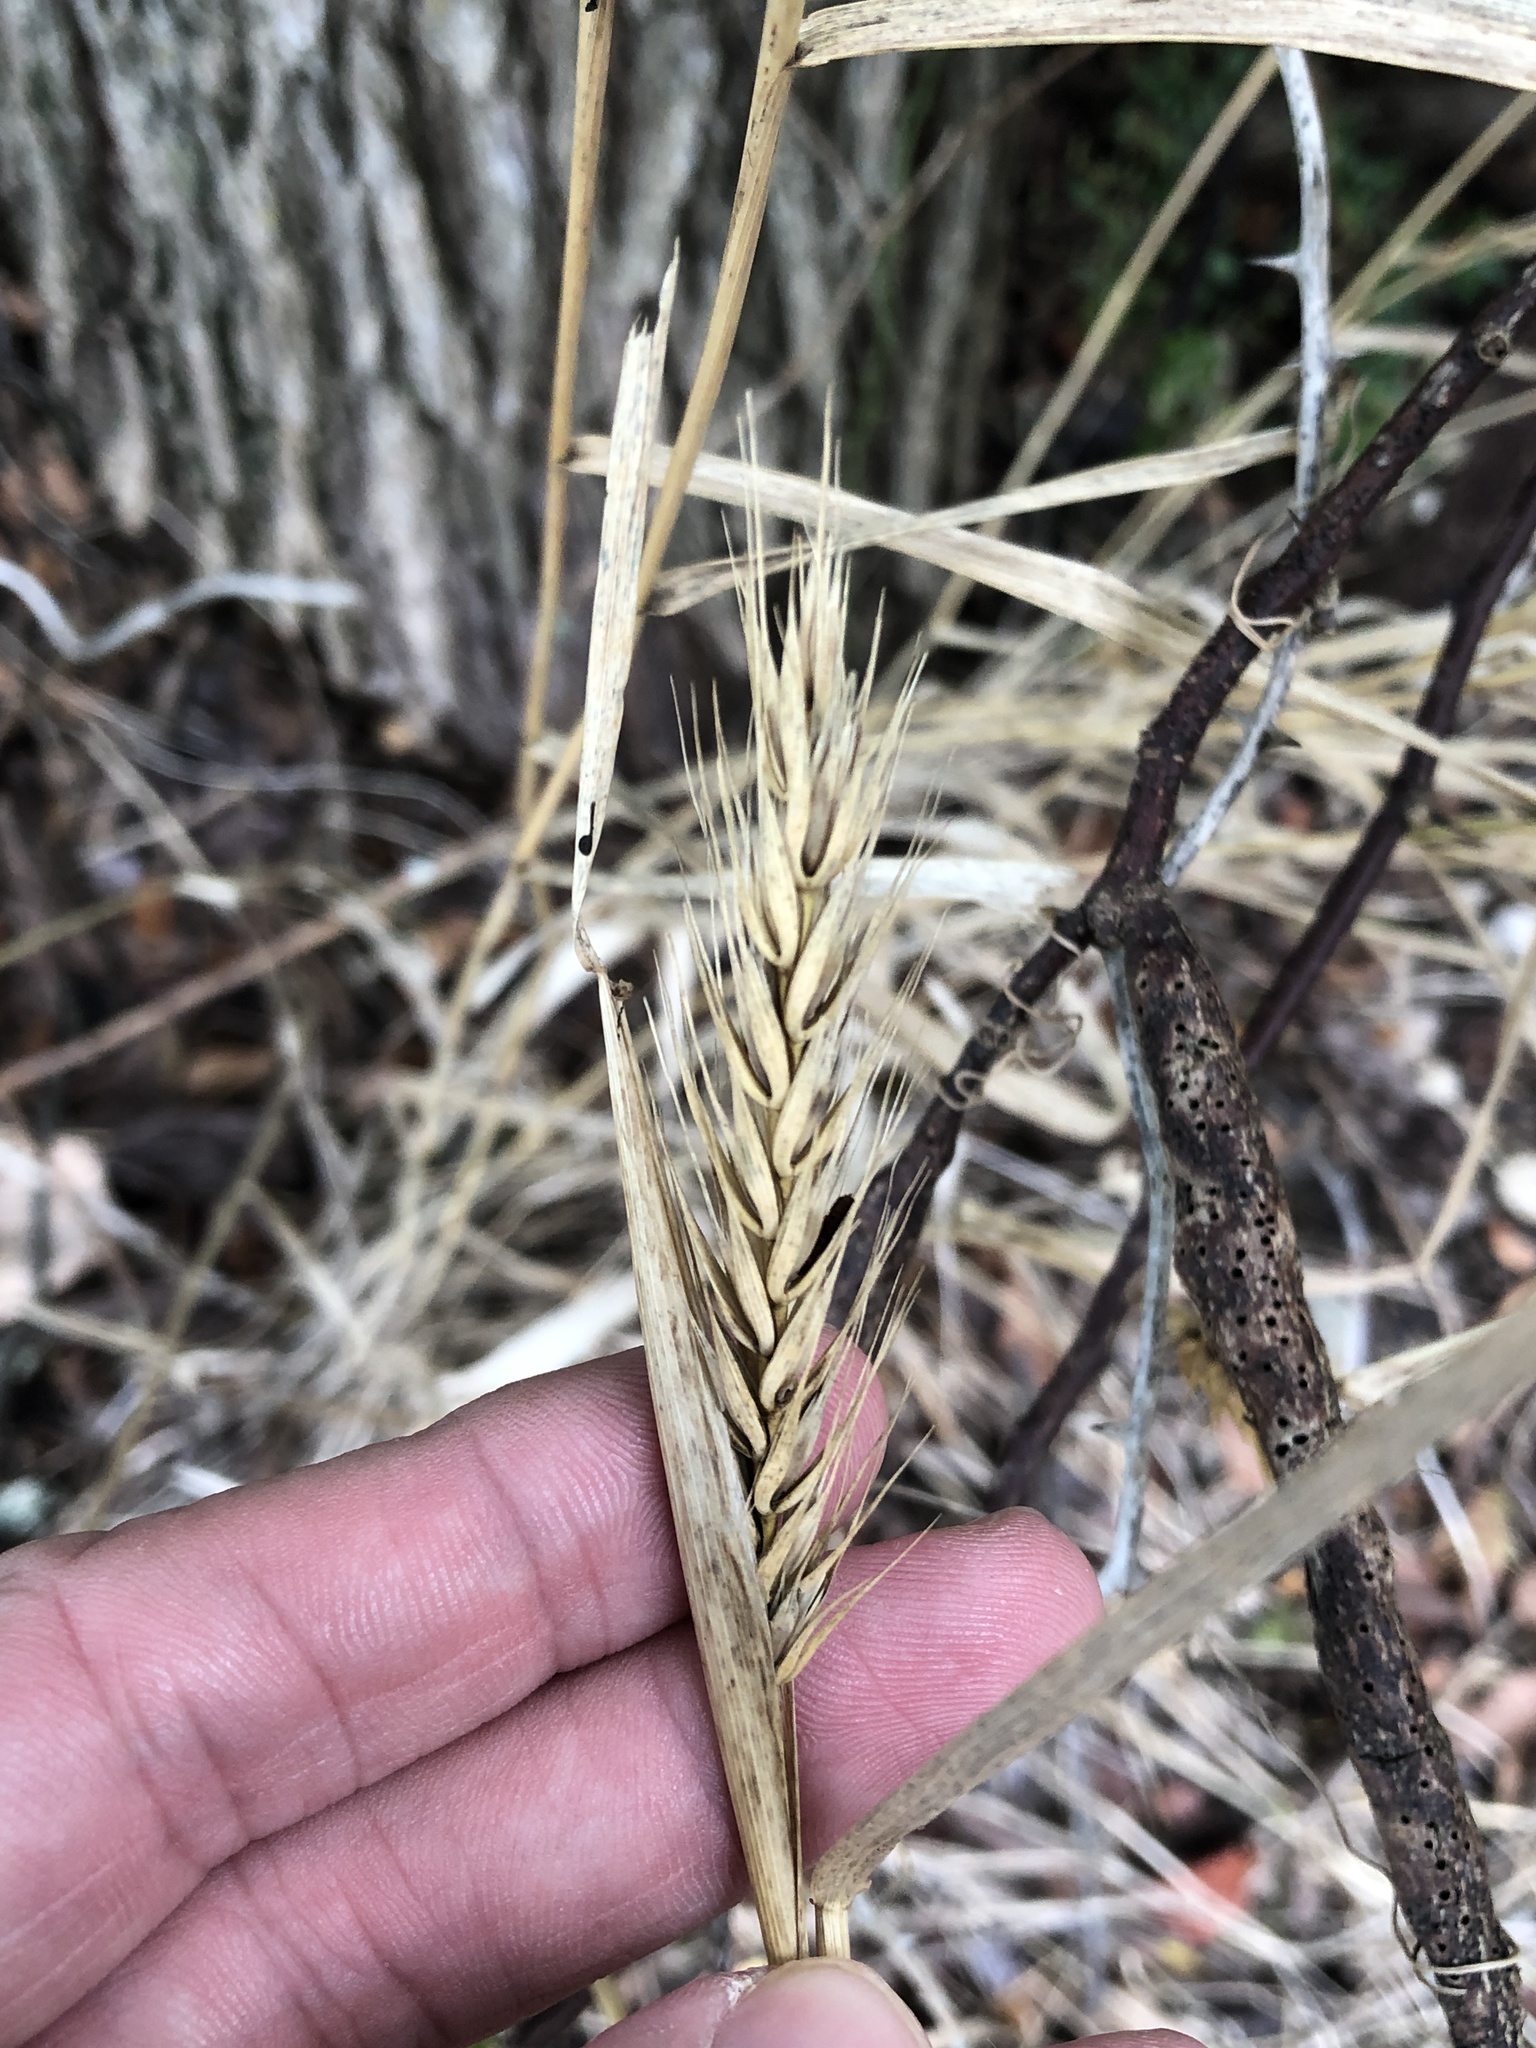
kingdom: Plantae
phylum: Tracheophyta
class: Liliopsida
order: Poales
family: Poaceae
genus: Elymus
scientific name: Elymus virginicus
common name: Common eastern wildrye
